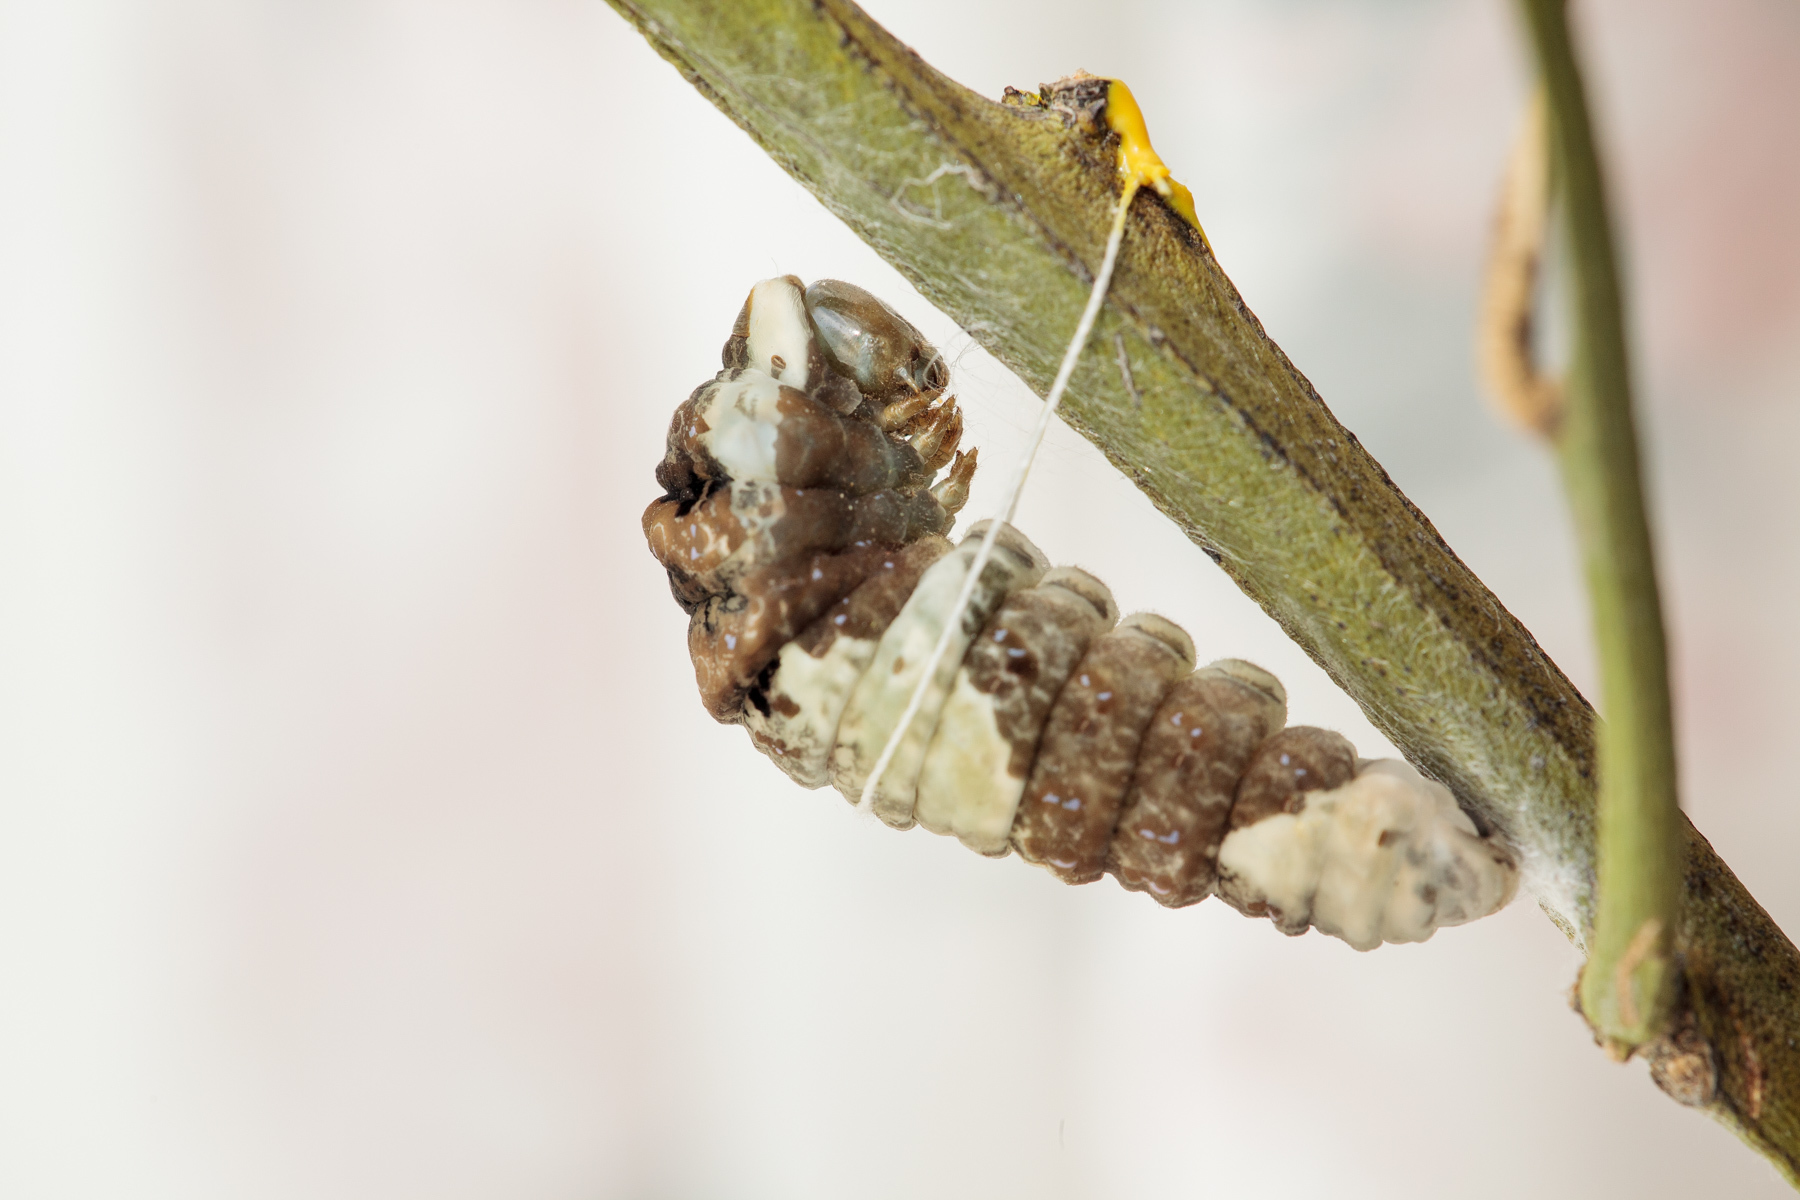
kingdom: Animalia
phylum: Arthropoda
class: Insecta
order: Lepidoptera
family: Papilionidae
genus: Papilio
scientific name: Papilio rumiko
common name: Western giant swallowtail
